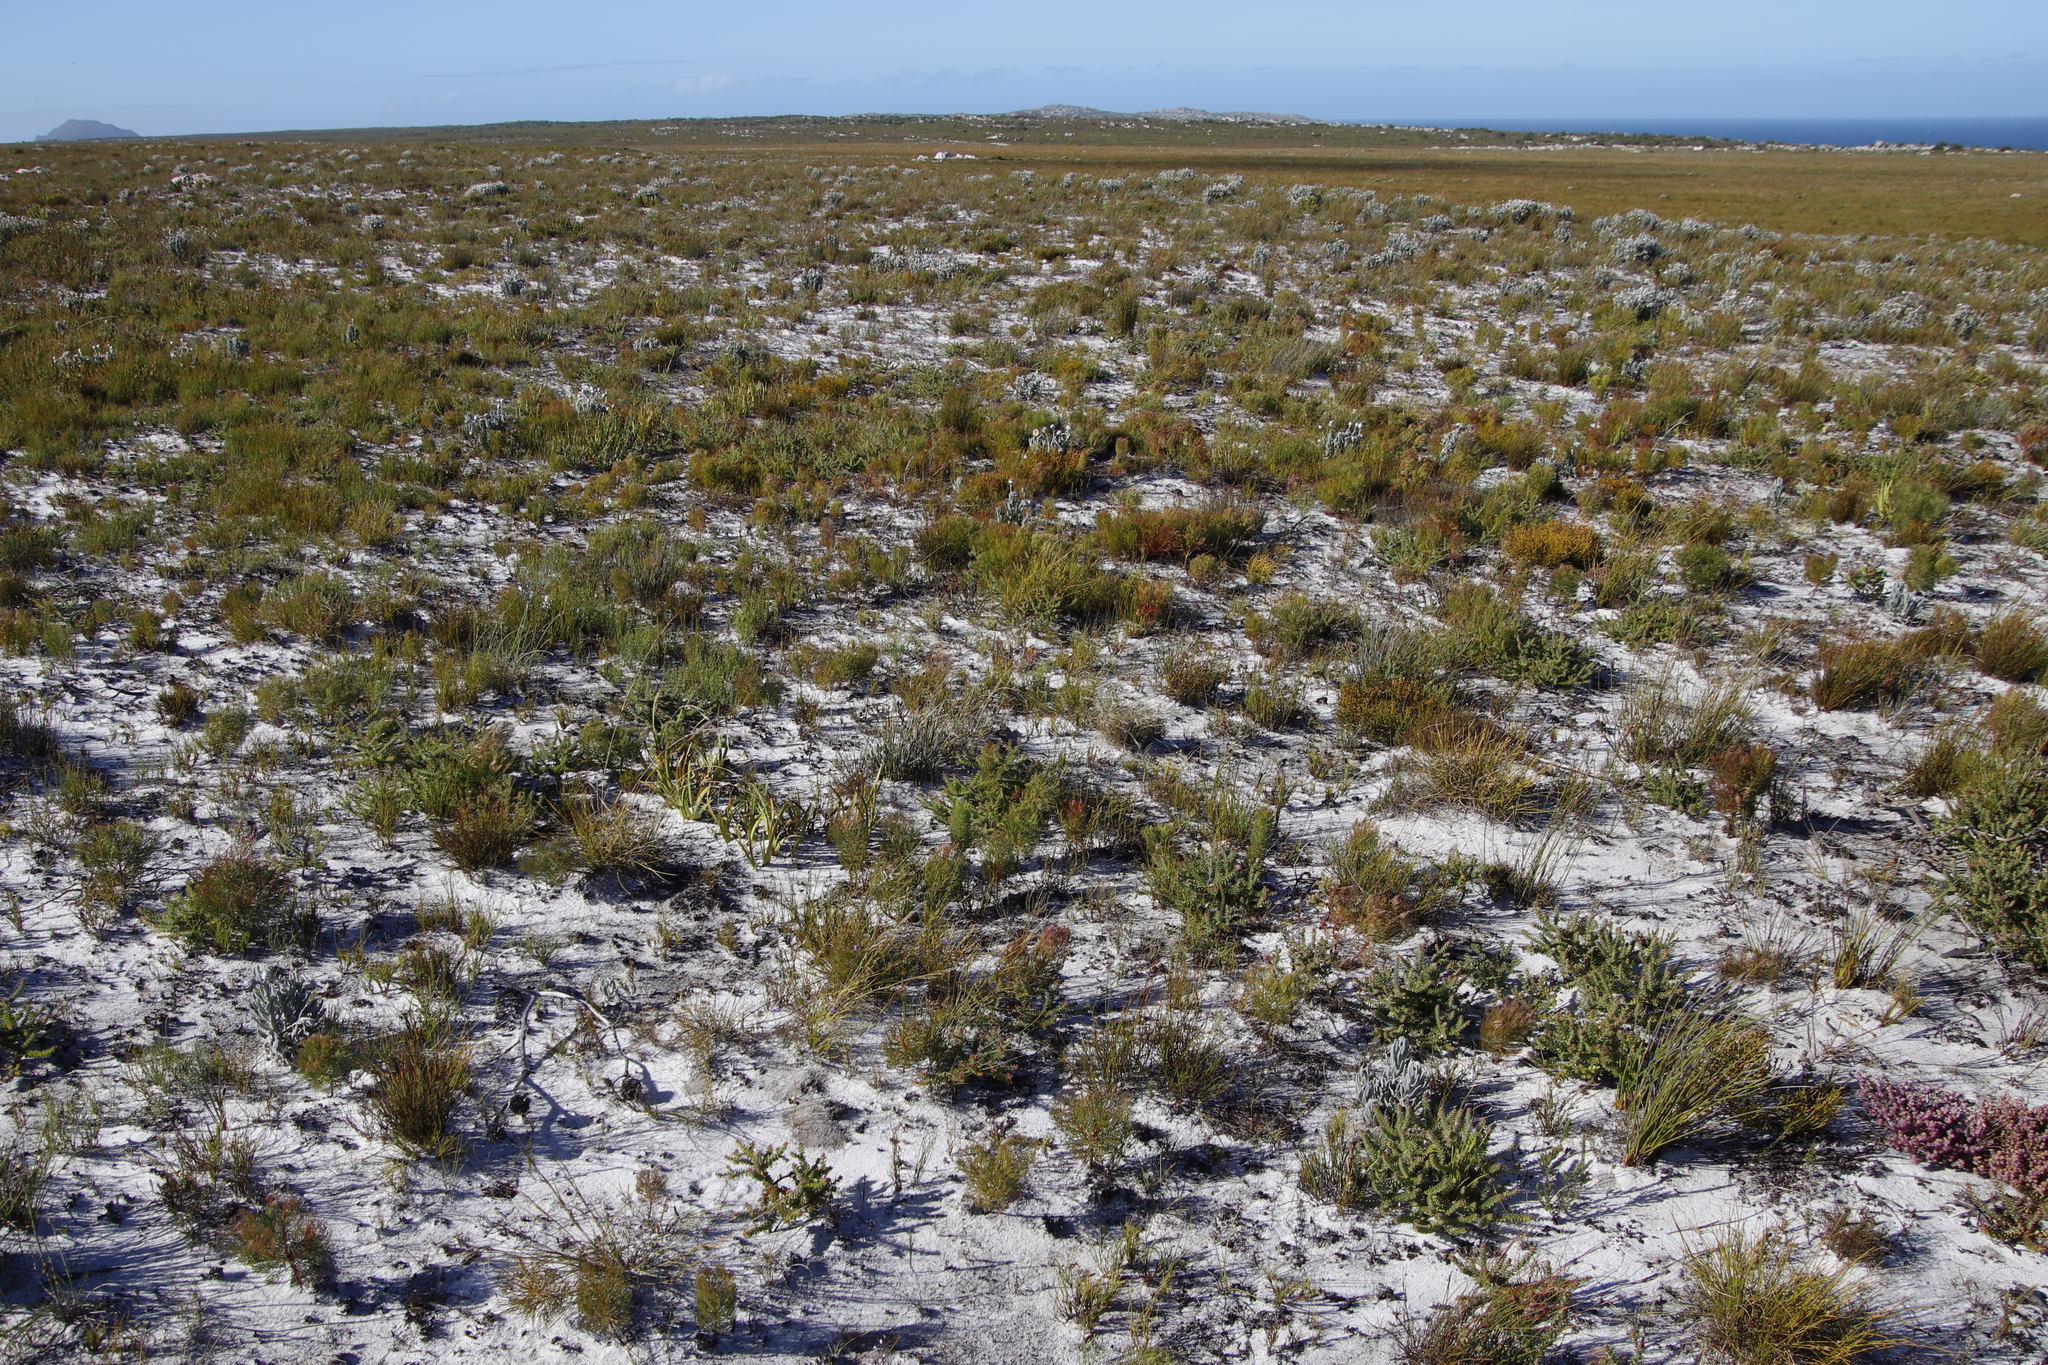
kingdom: Plantae
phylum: Tracheophyta
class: Magnoliopsida
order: Proteales
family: Proteaceae
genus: Serruria
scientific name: Serruria glomerata
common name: Cluster spiderhead
